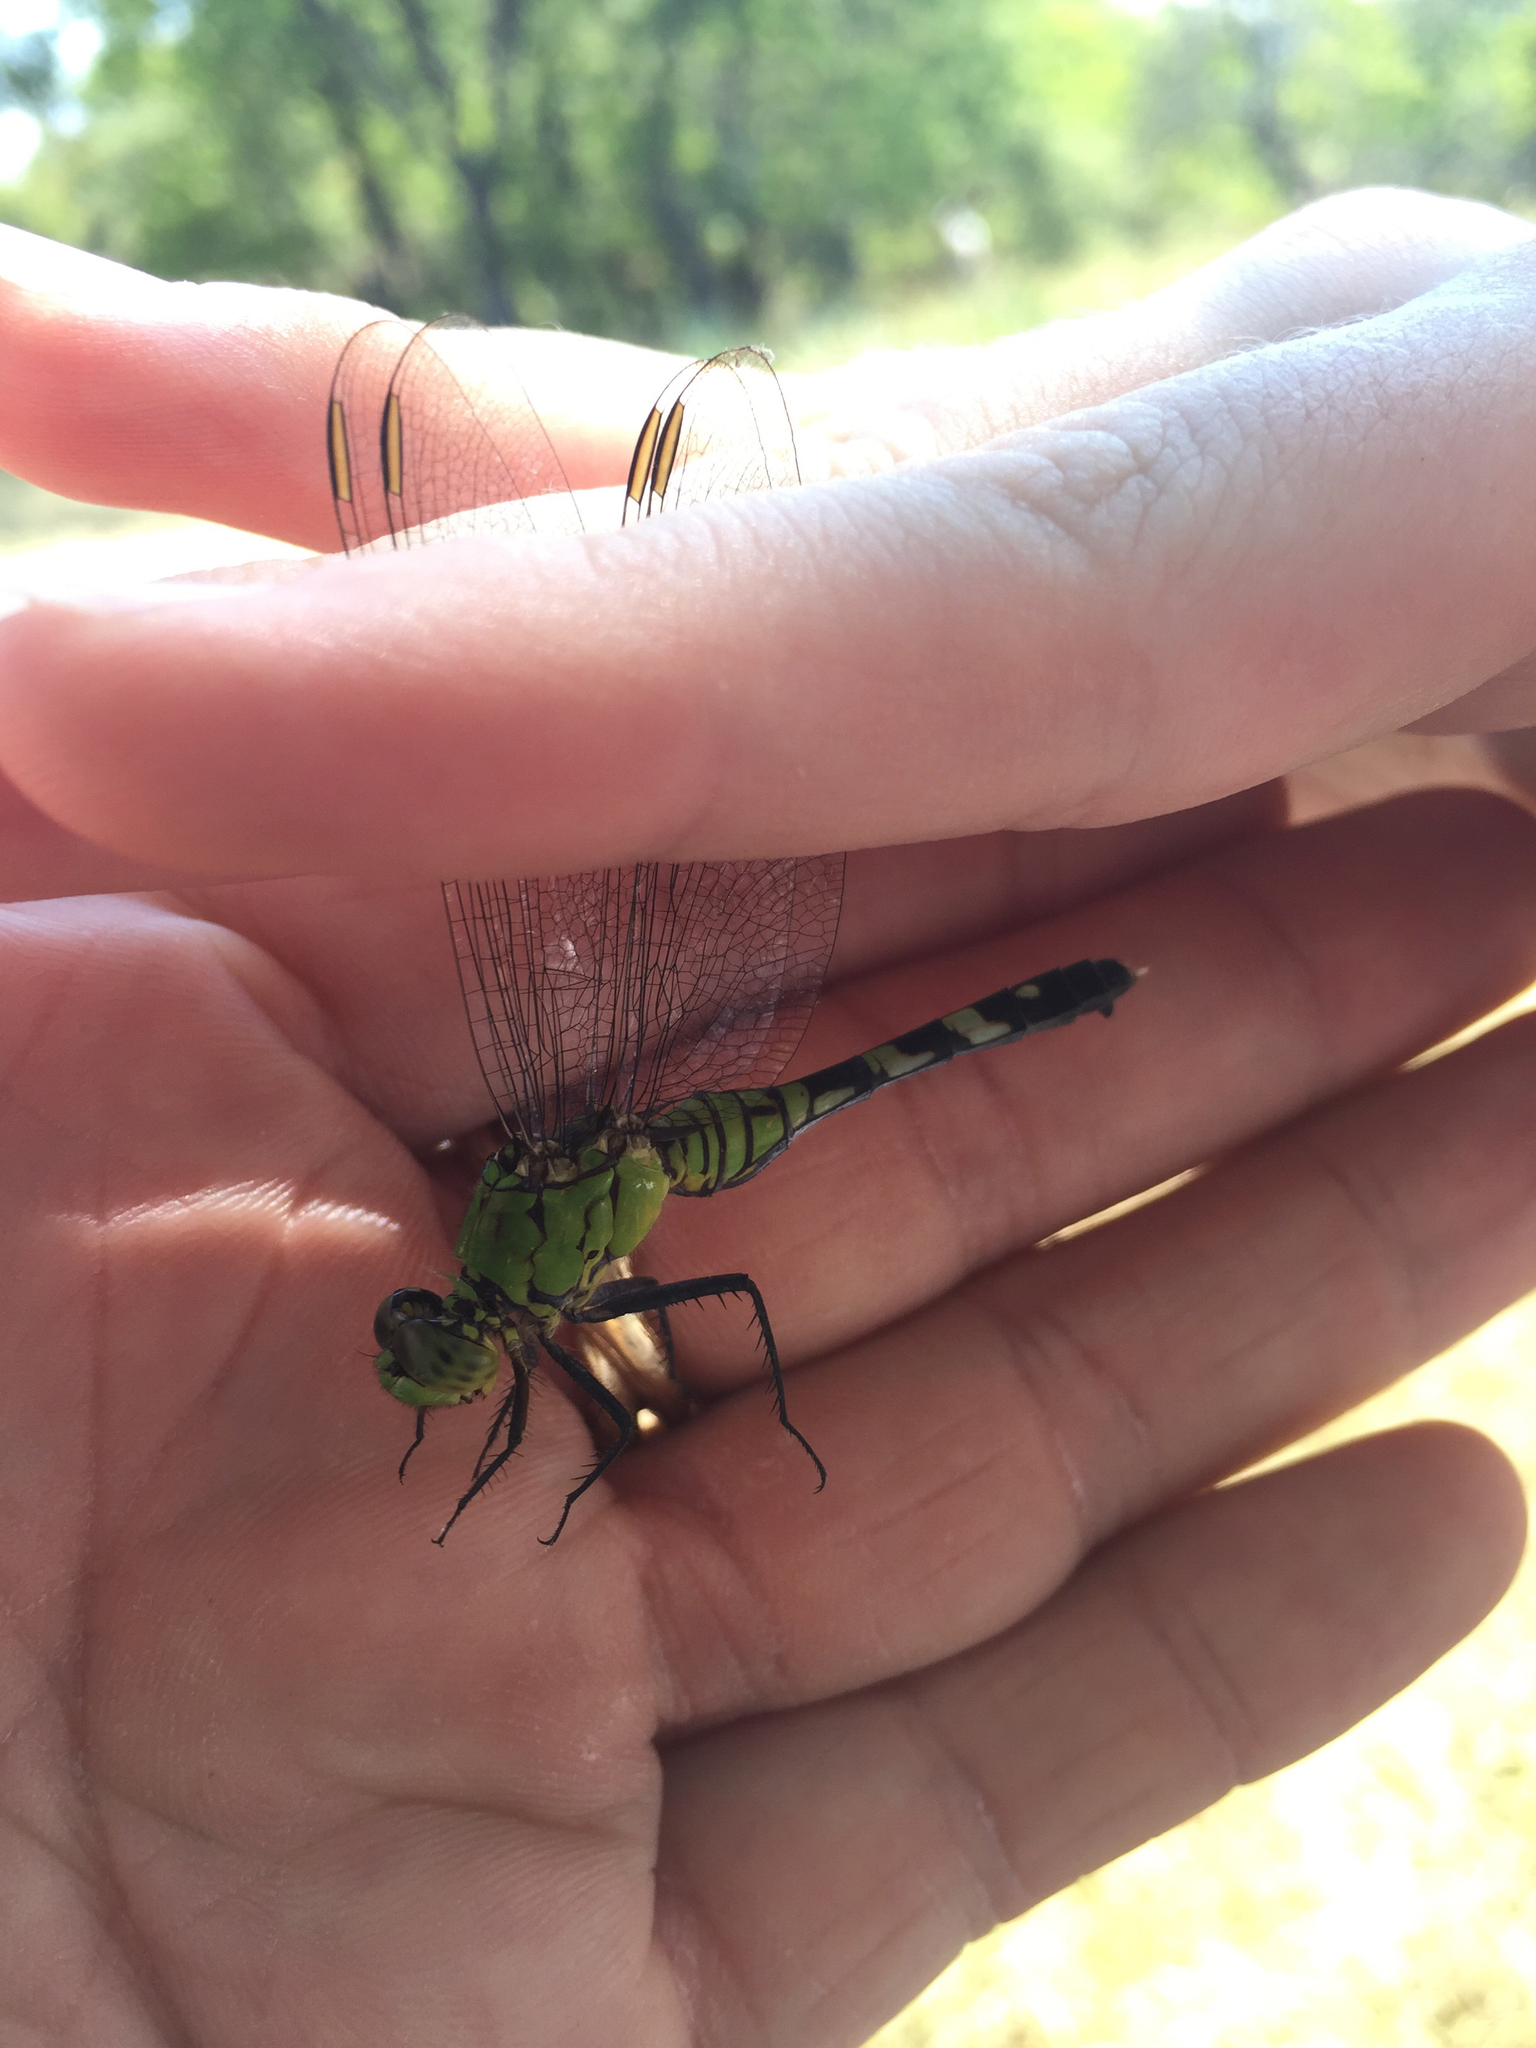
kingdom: Animalia
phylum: Arthropoda
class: Insecta
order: Odonata
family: Libellulidae
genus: Erythemis
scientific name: Erythemis simplicicollis
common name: Eastern pondhawk
